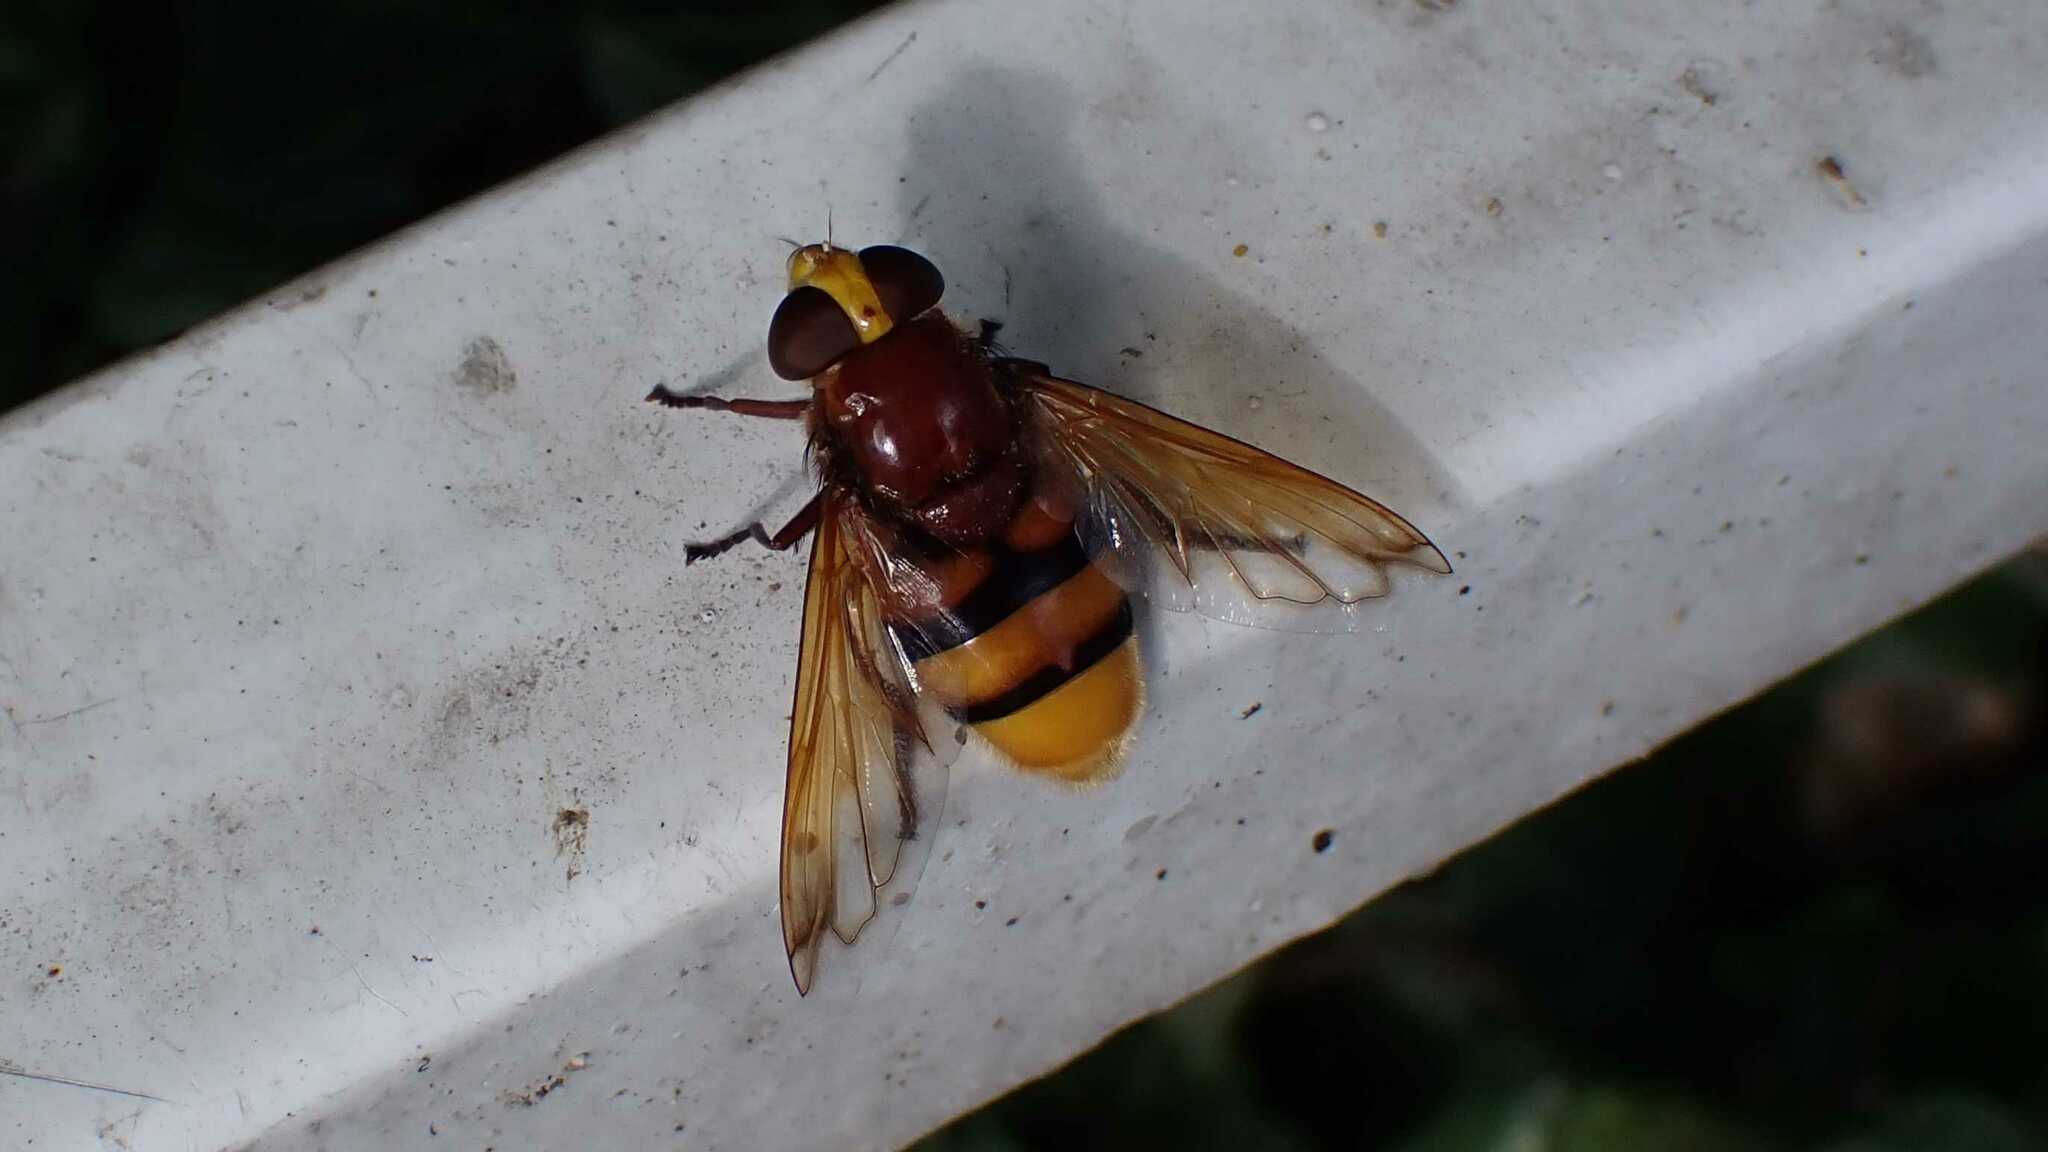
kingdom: Animalia
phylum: Arthropoda
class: Insecta
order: Diptera
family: Syrphidae
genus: Volucella
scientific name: Volucella zonaria
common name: Hornet hoverfly
